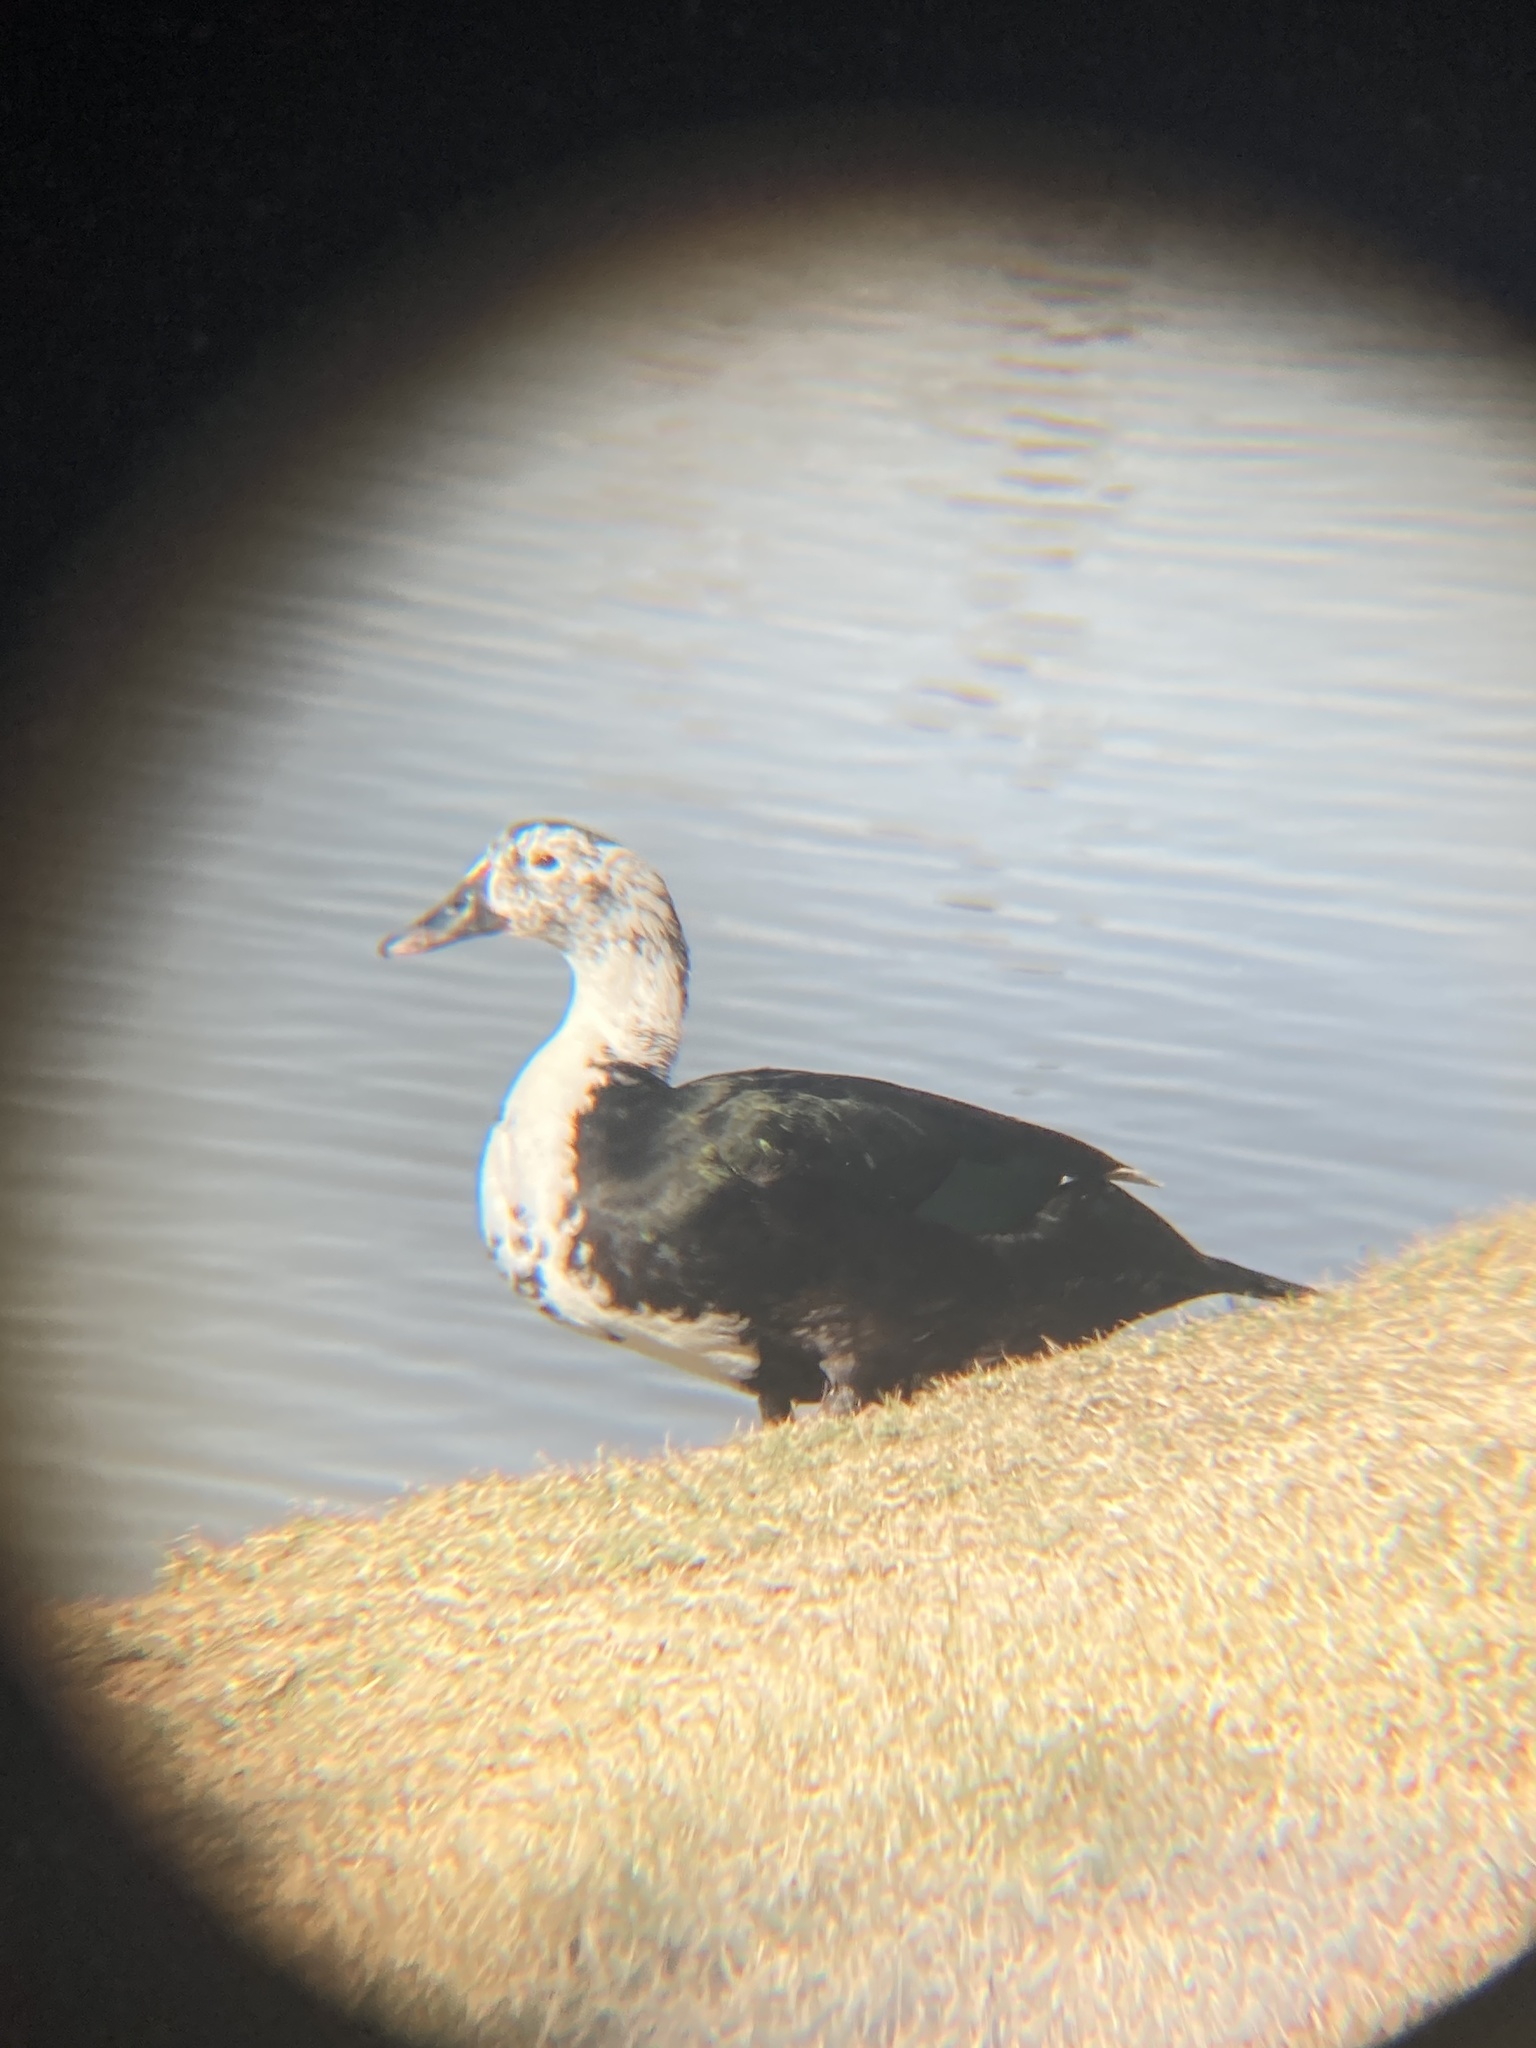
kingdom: Animalia
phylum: Chordata
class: Aves
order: Anseriformes
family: Anatidae
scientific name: Anatidae
